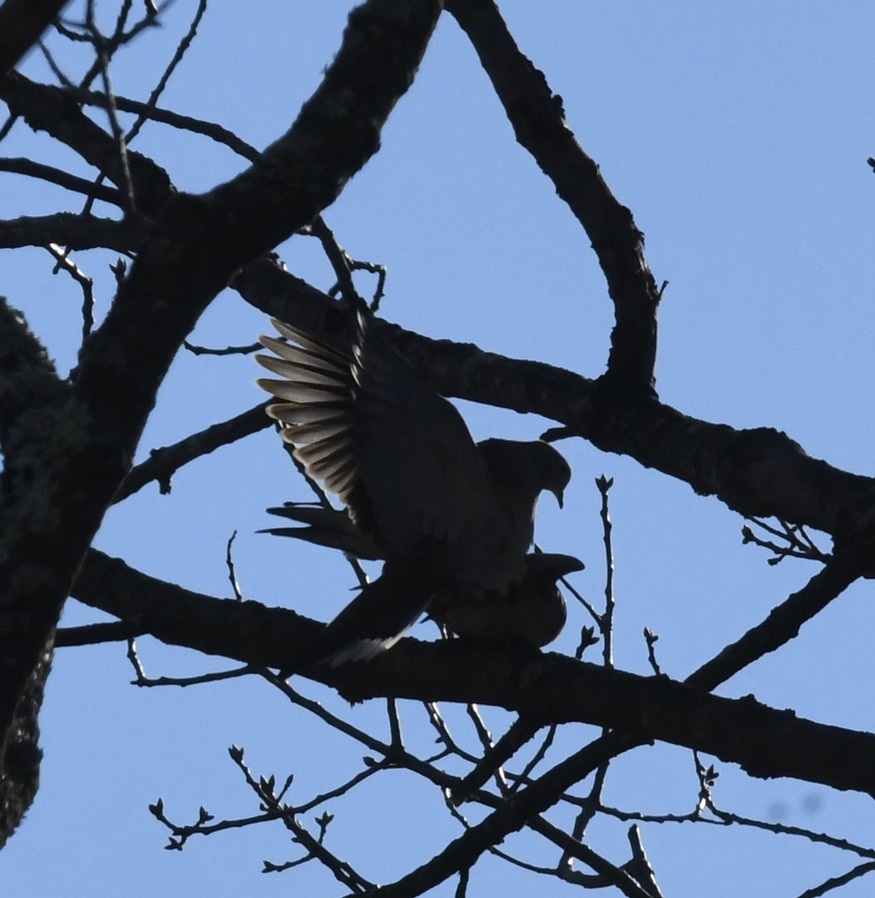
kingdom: Animalia
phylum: Chordata
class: Aves
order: Columbiformes
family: Columbidae
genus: Zenaida
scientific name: Zenaida macroura
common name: Mourning dove
